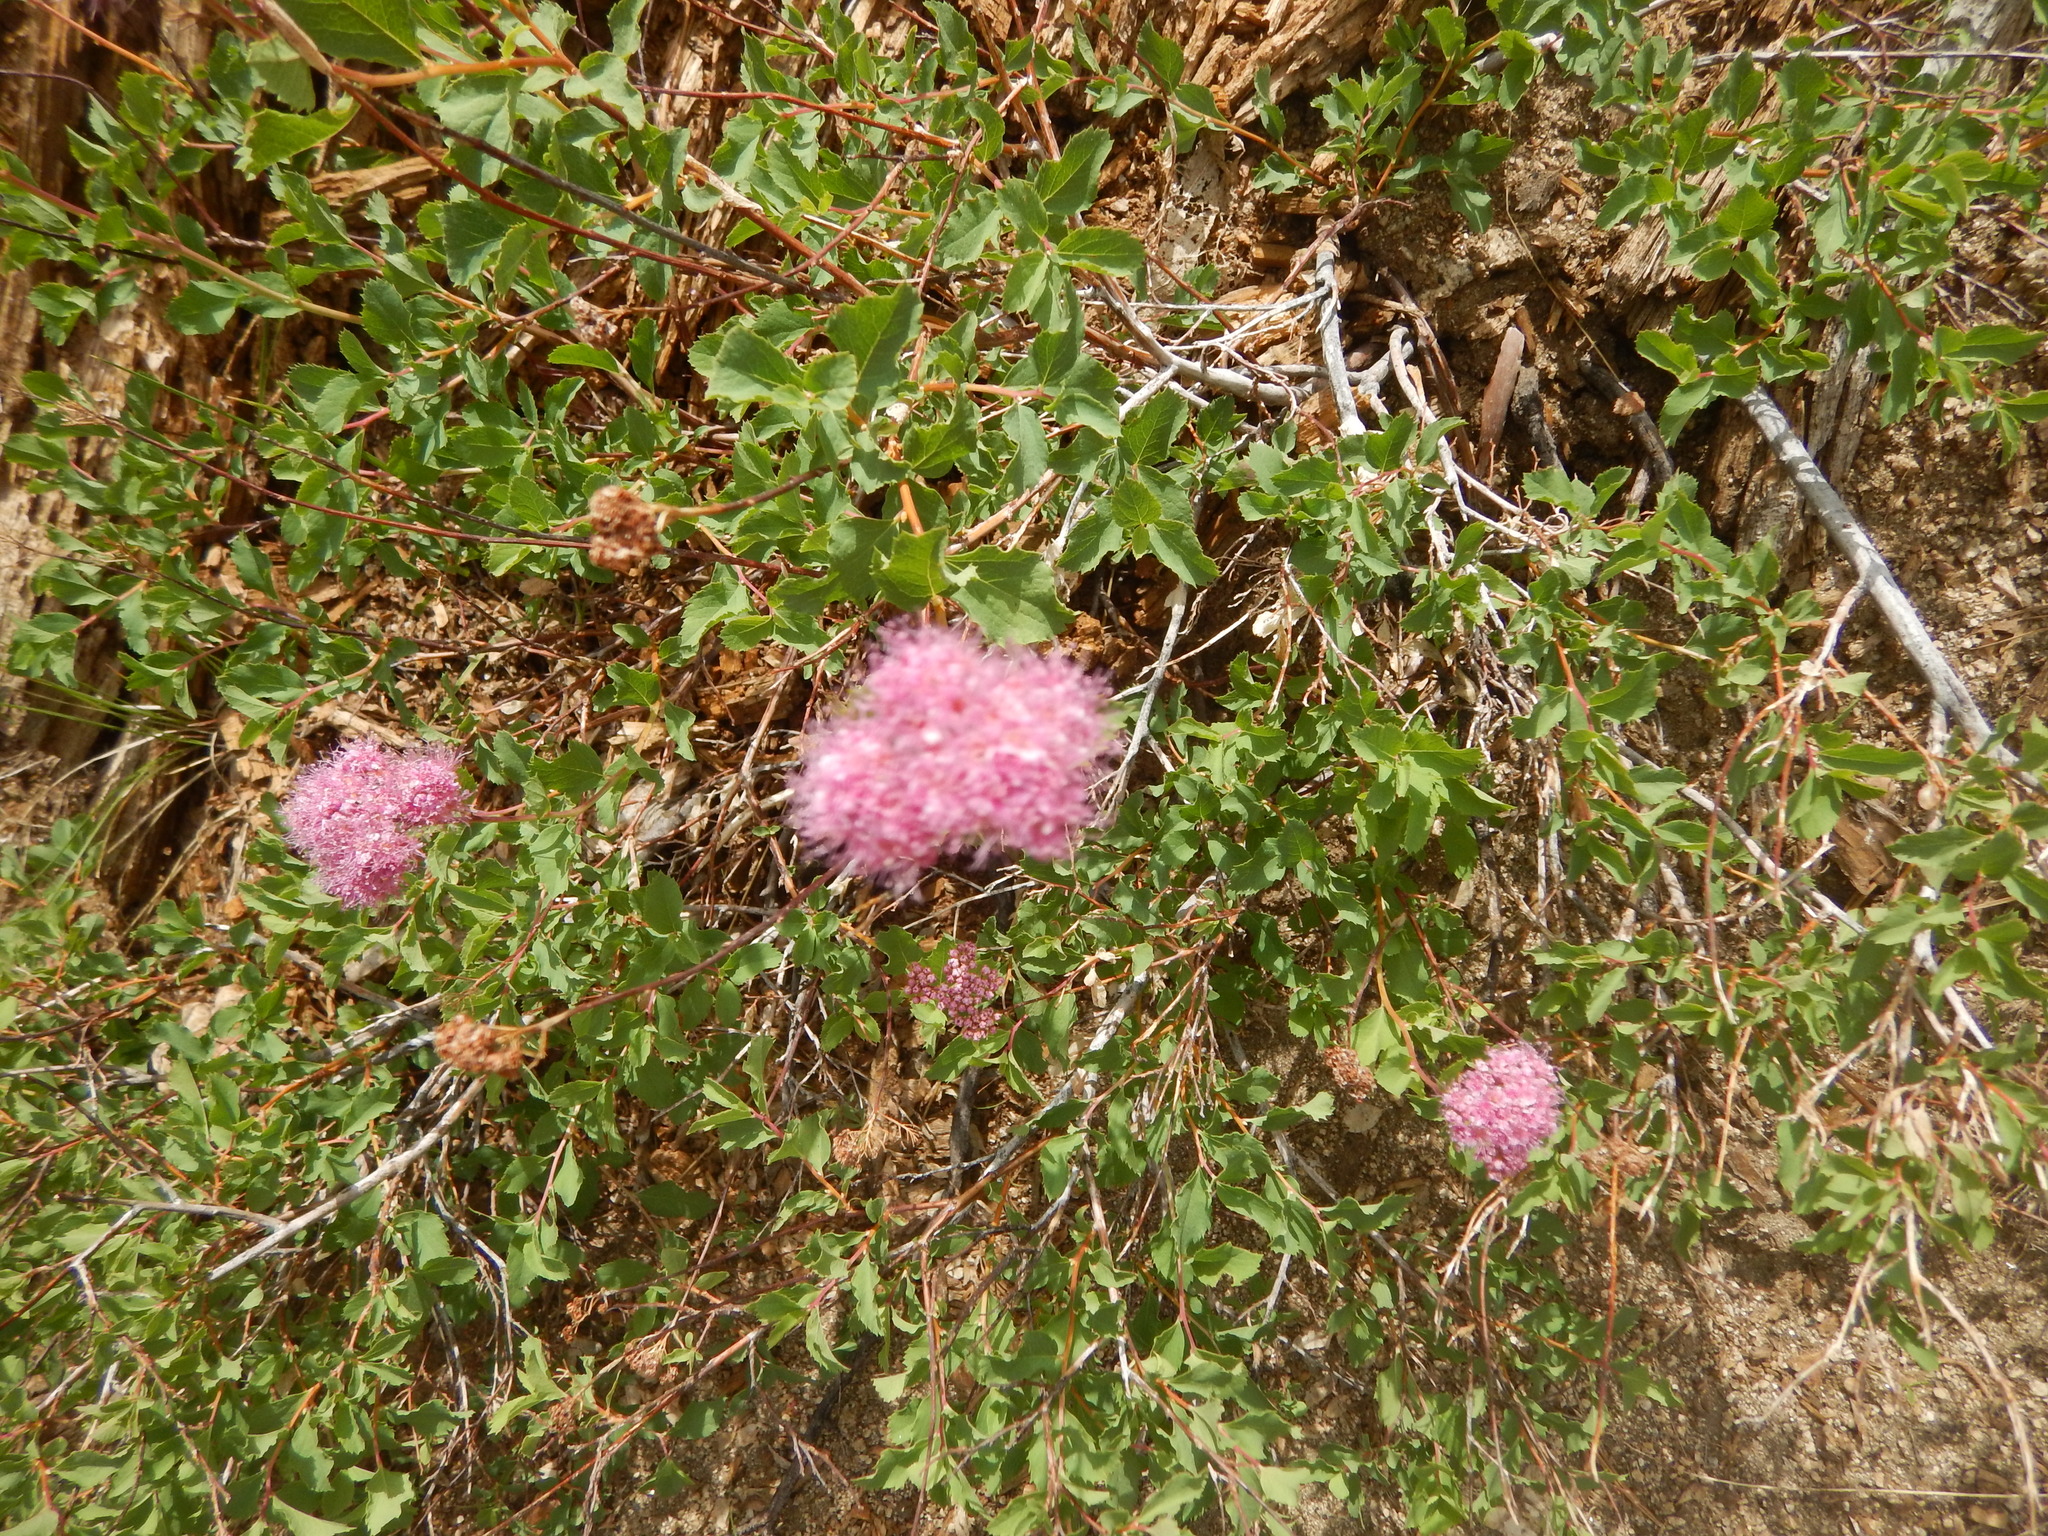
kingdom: Plantae
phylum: Tracheophyta
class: Magnoliopsida
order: Rosales
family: Rosaceae
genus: Spiraea
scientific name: Spiraea splendens
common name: Subalpine meadowsweet
